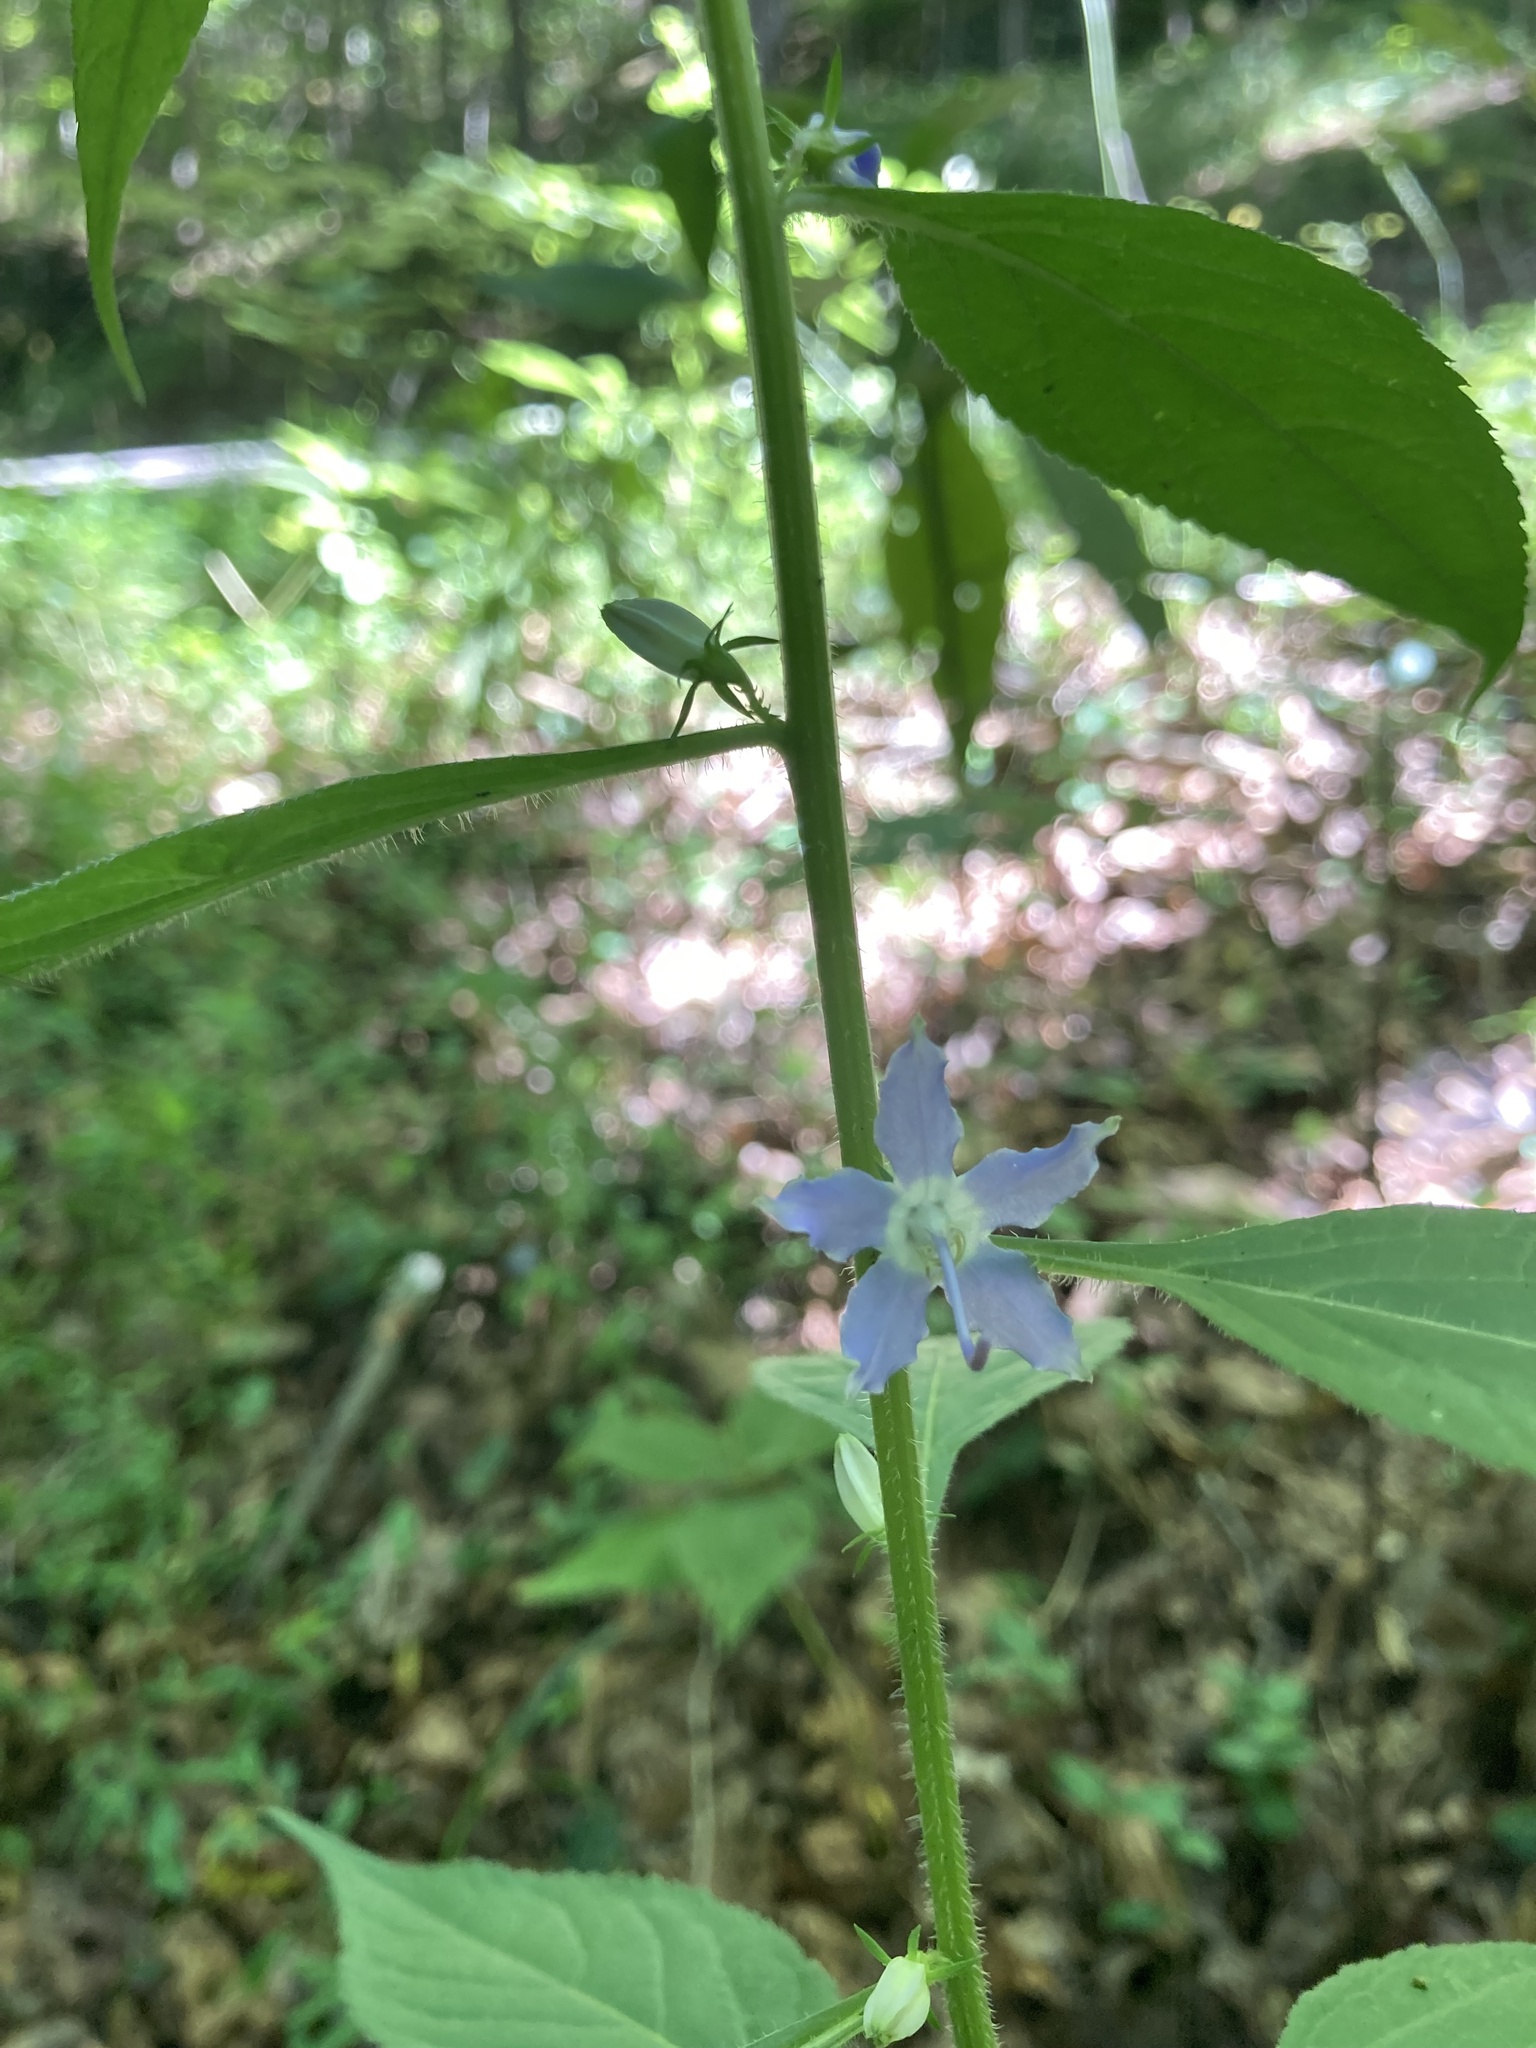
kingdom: Plantae
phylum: Tracheophyta
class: Magnoliopsida
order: Asterales
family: Campanulaceae
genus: Campanulastrum
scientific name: Campanulastrum americanum
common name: American bellflower
